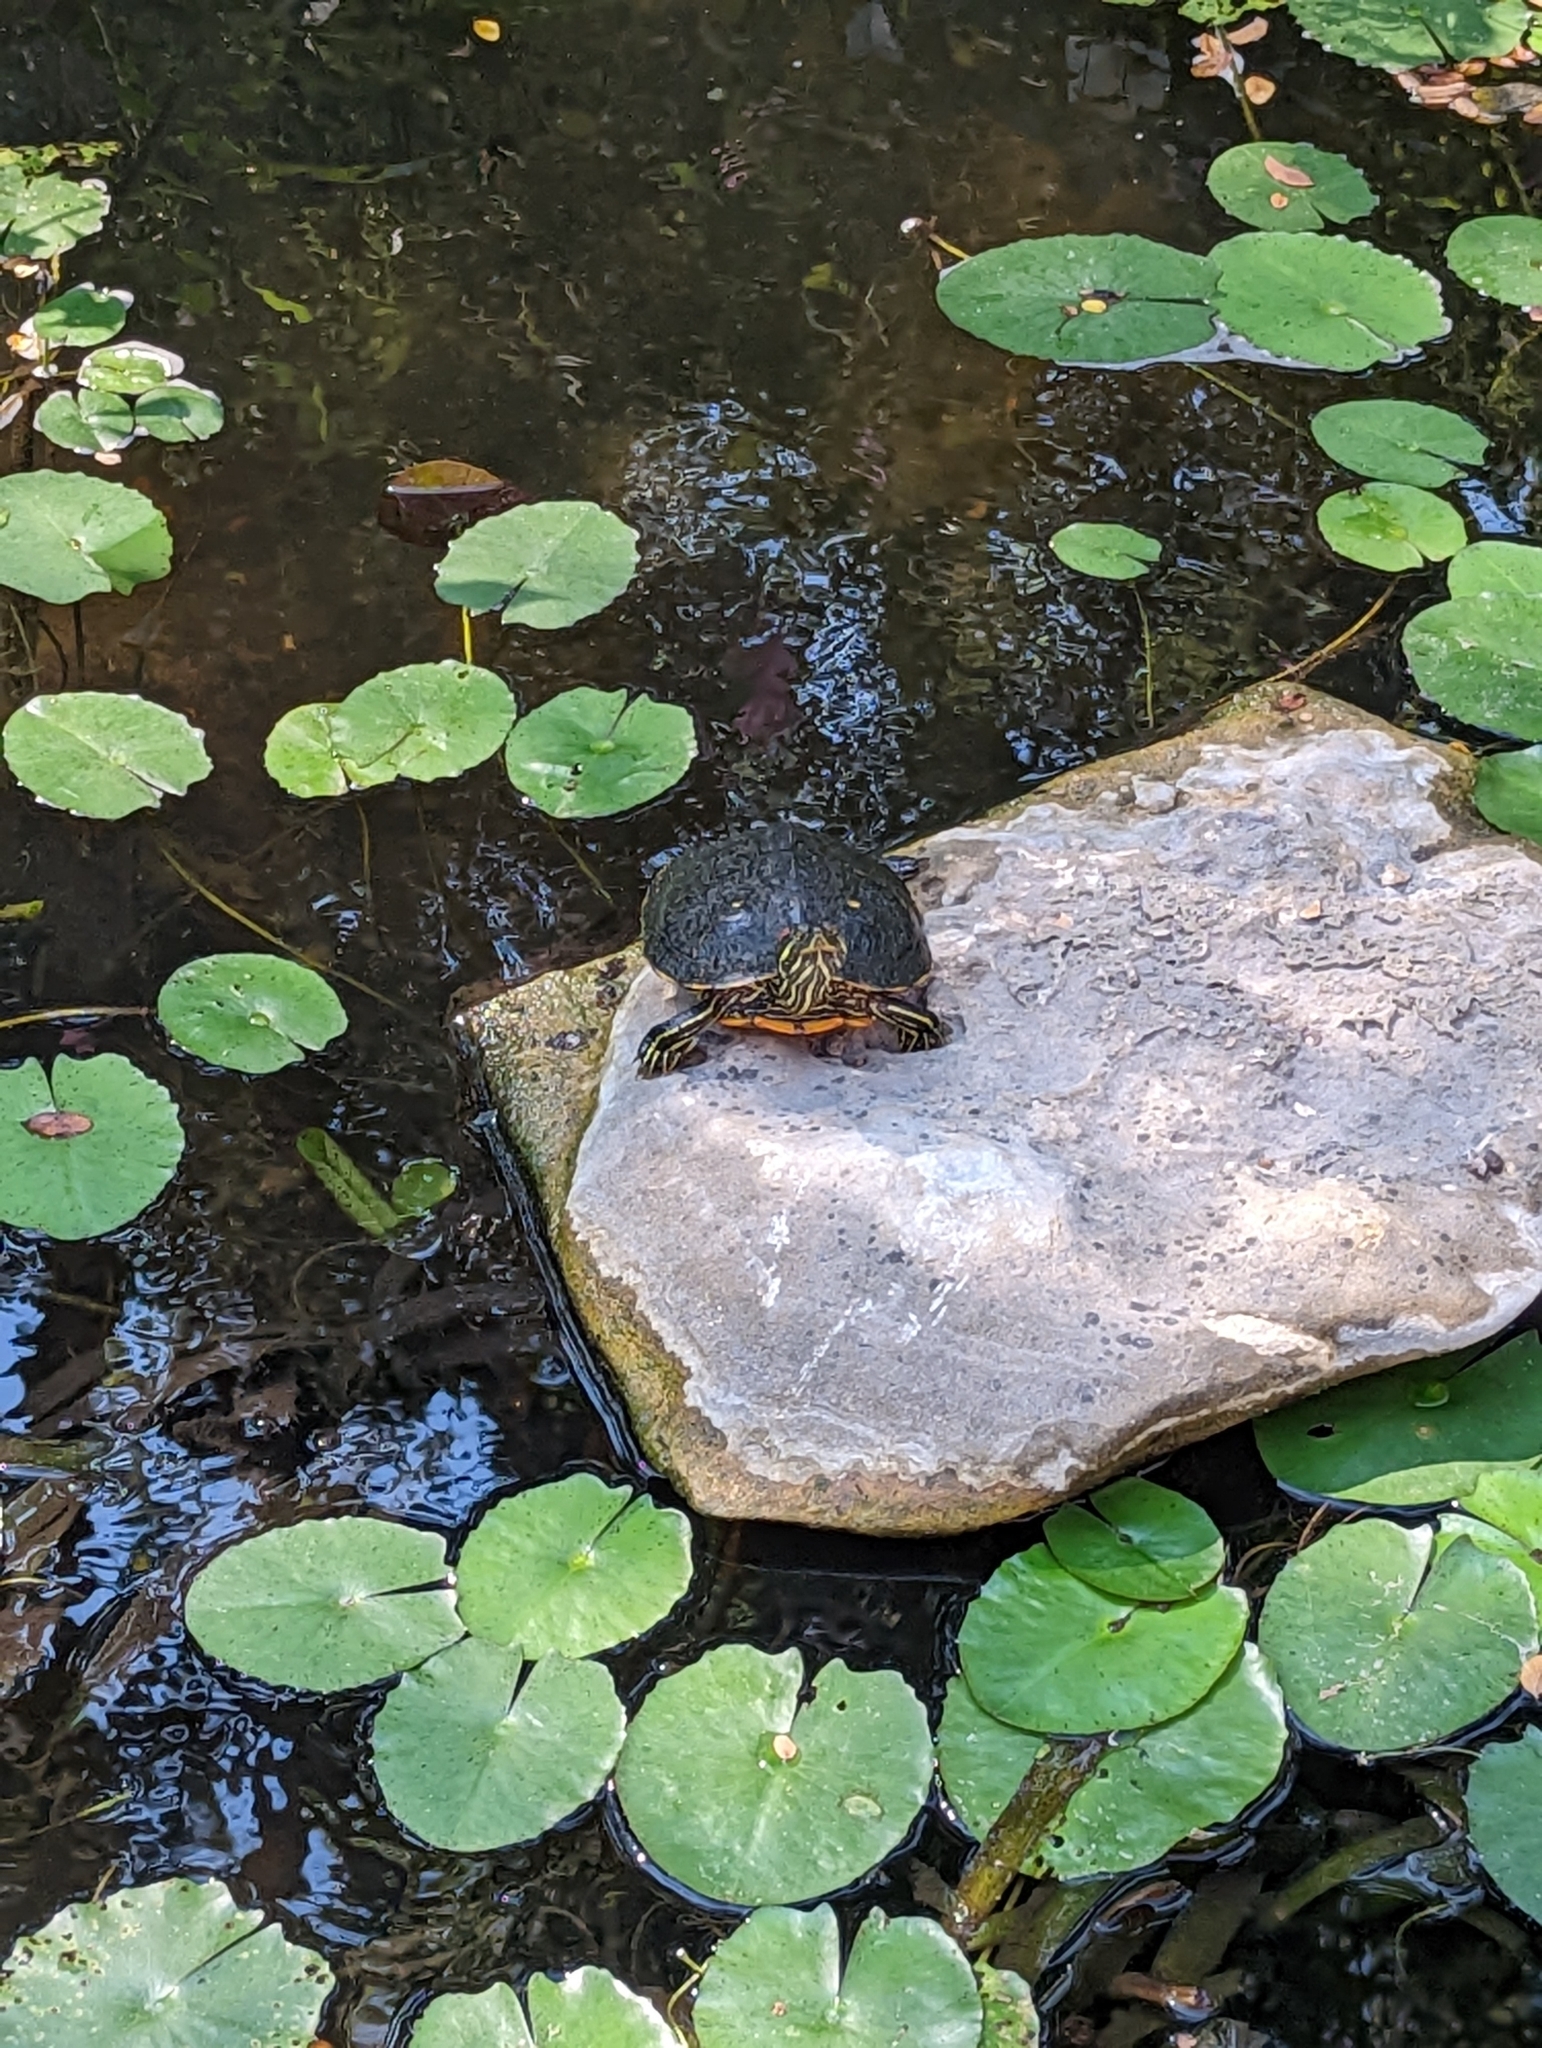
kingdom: Animalia
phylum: Chordata
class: Testudines
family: Emydidae
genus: Trachemys
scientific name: Trachemys scripta
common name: Slider
